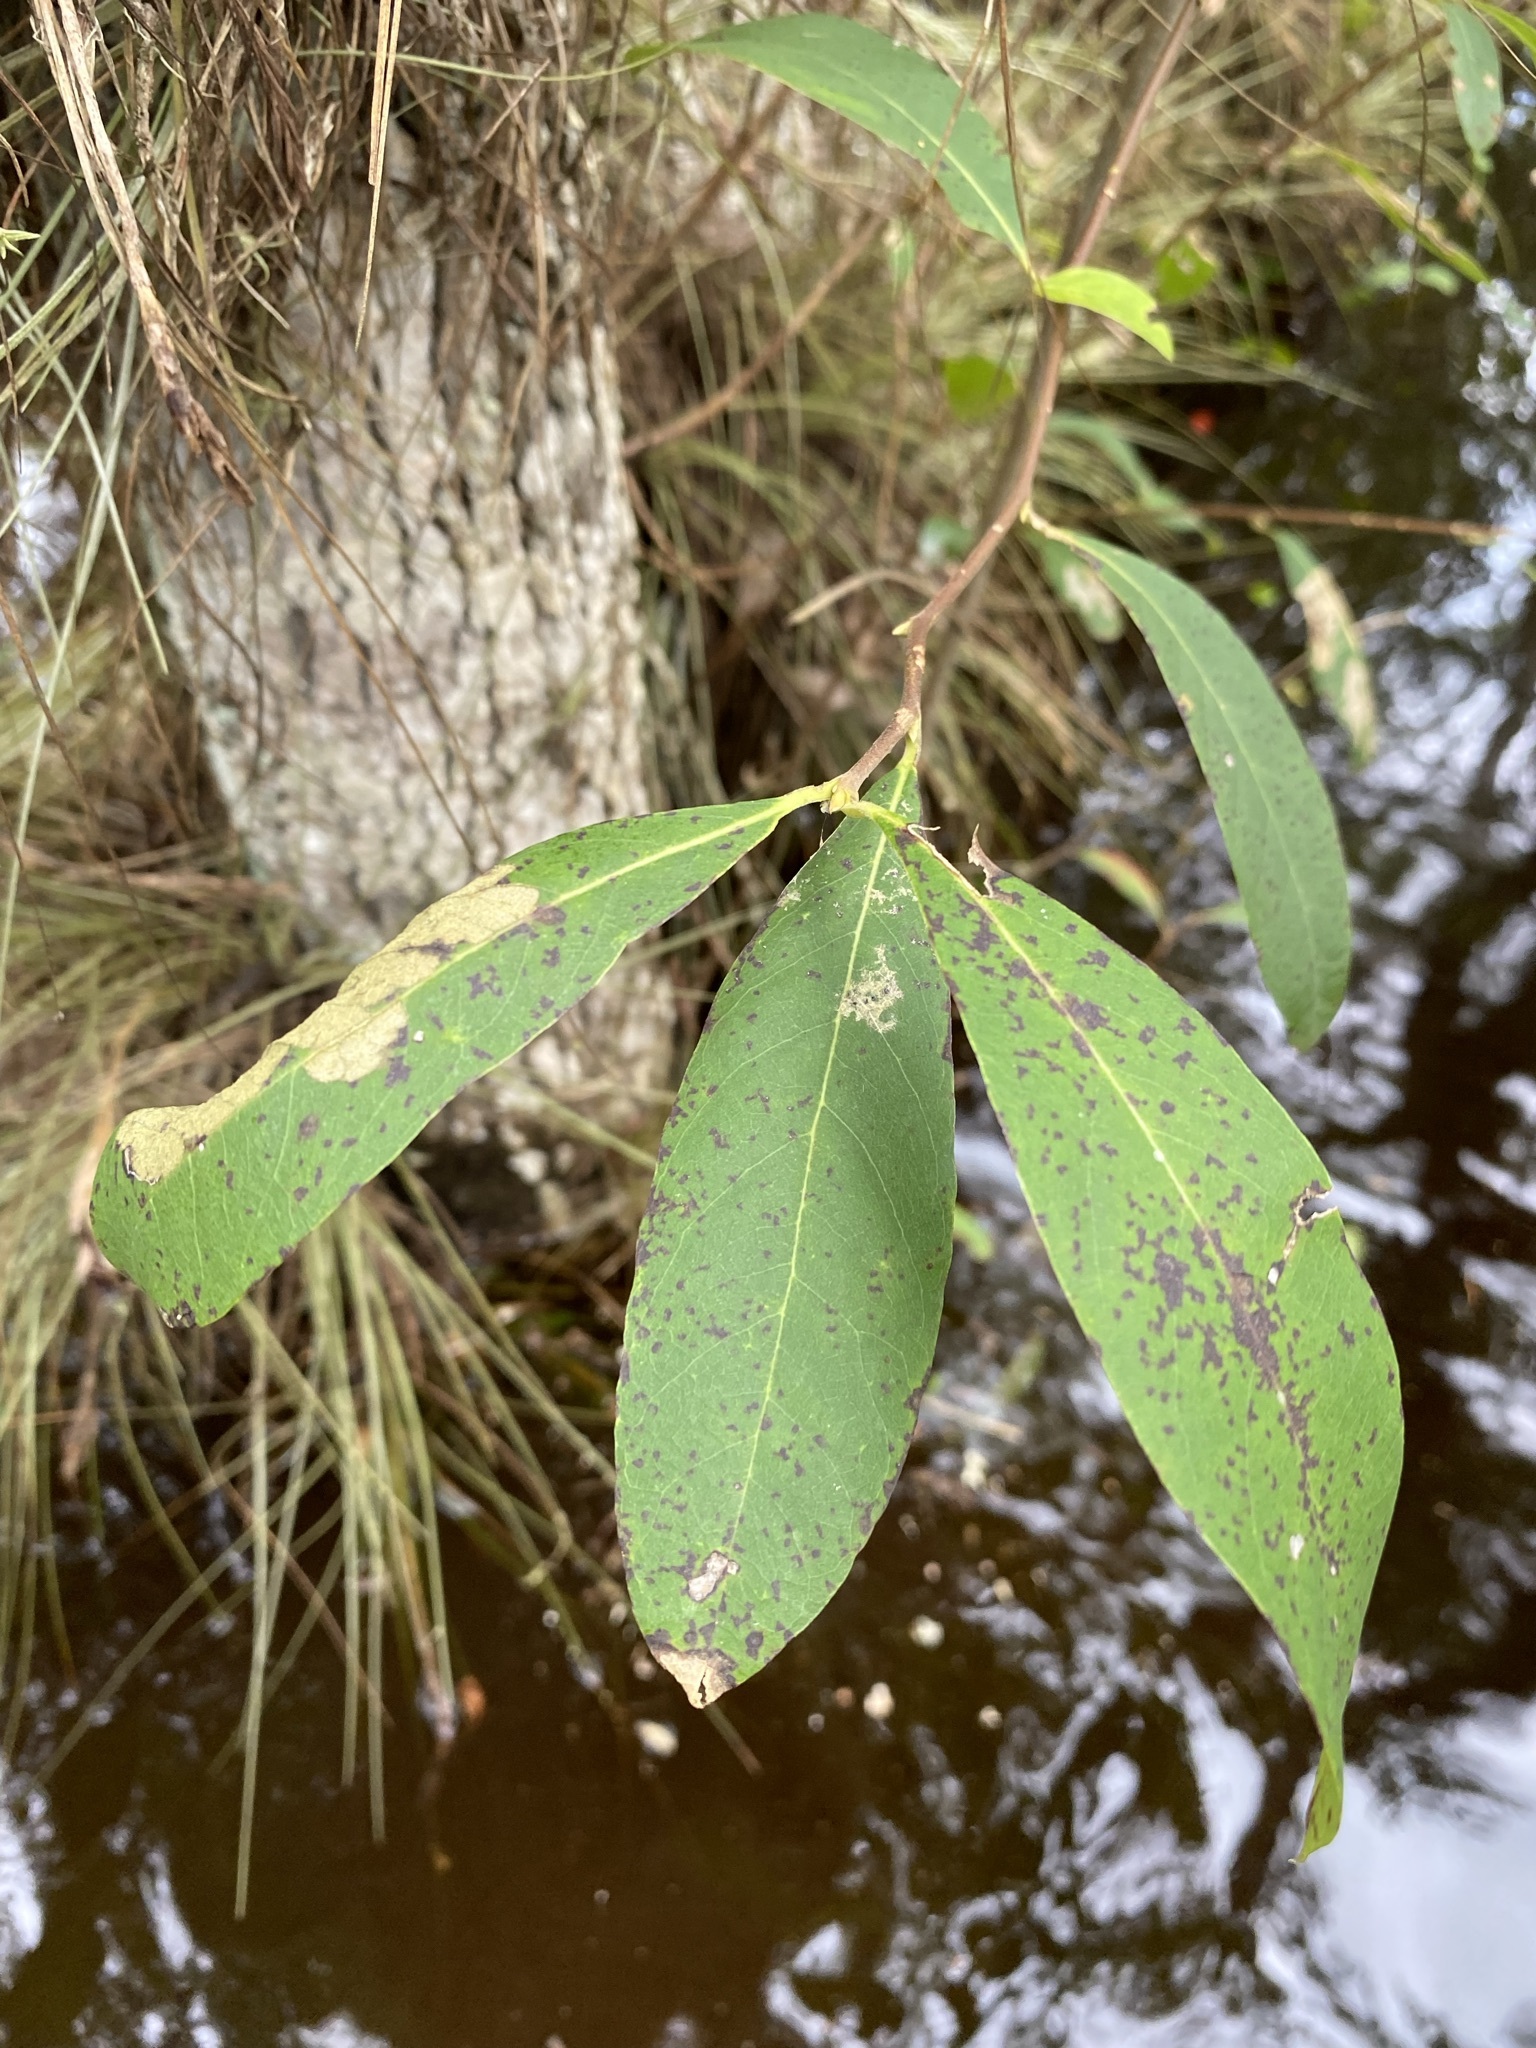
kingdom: Plantae
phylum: Tracheophyta
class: Magnoliopsida
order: Cornales
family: Nyssaceae
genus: Nyssa
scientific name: Nyssa biflora
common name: Swamp blackgum
